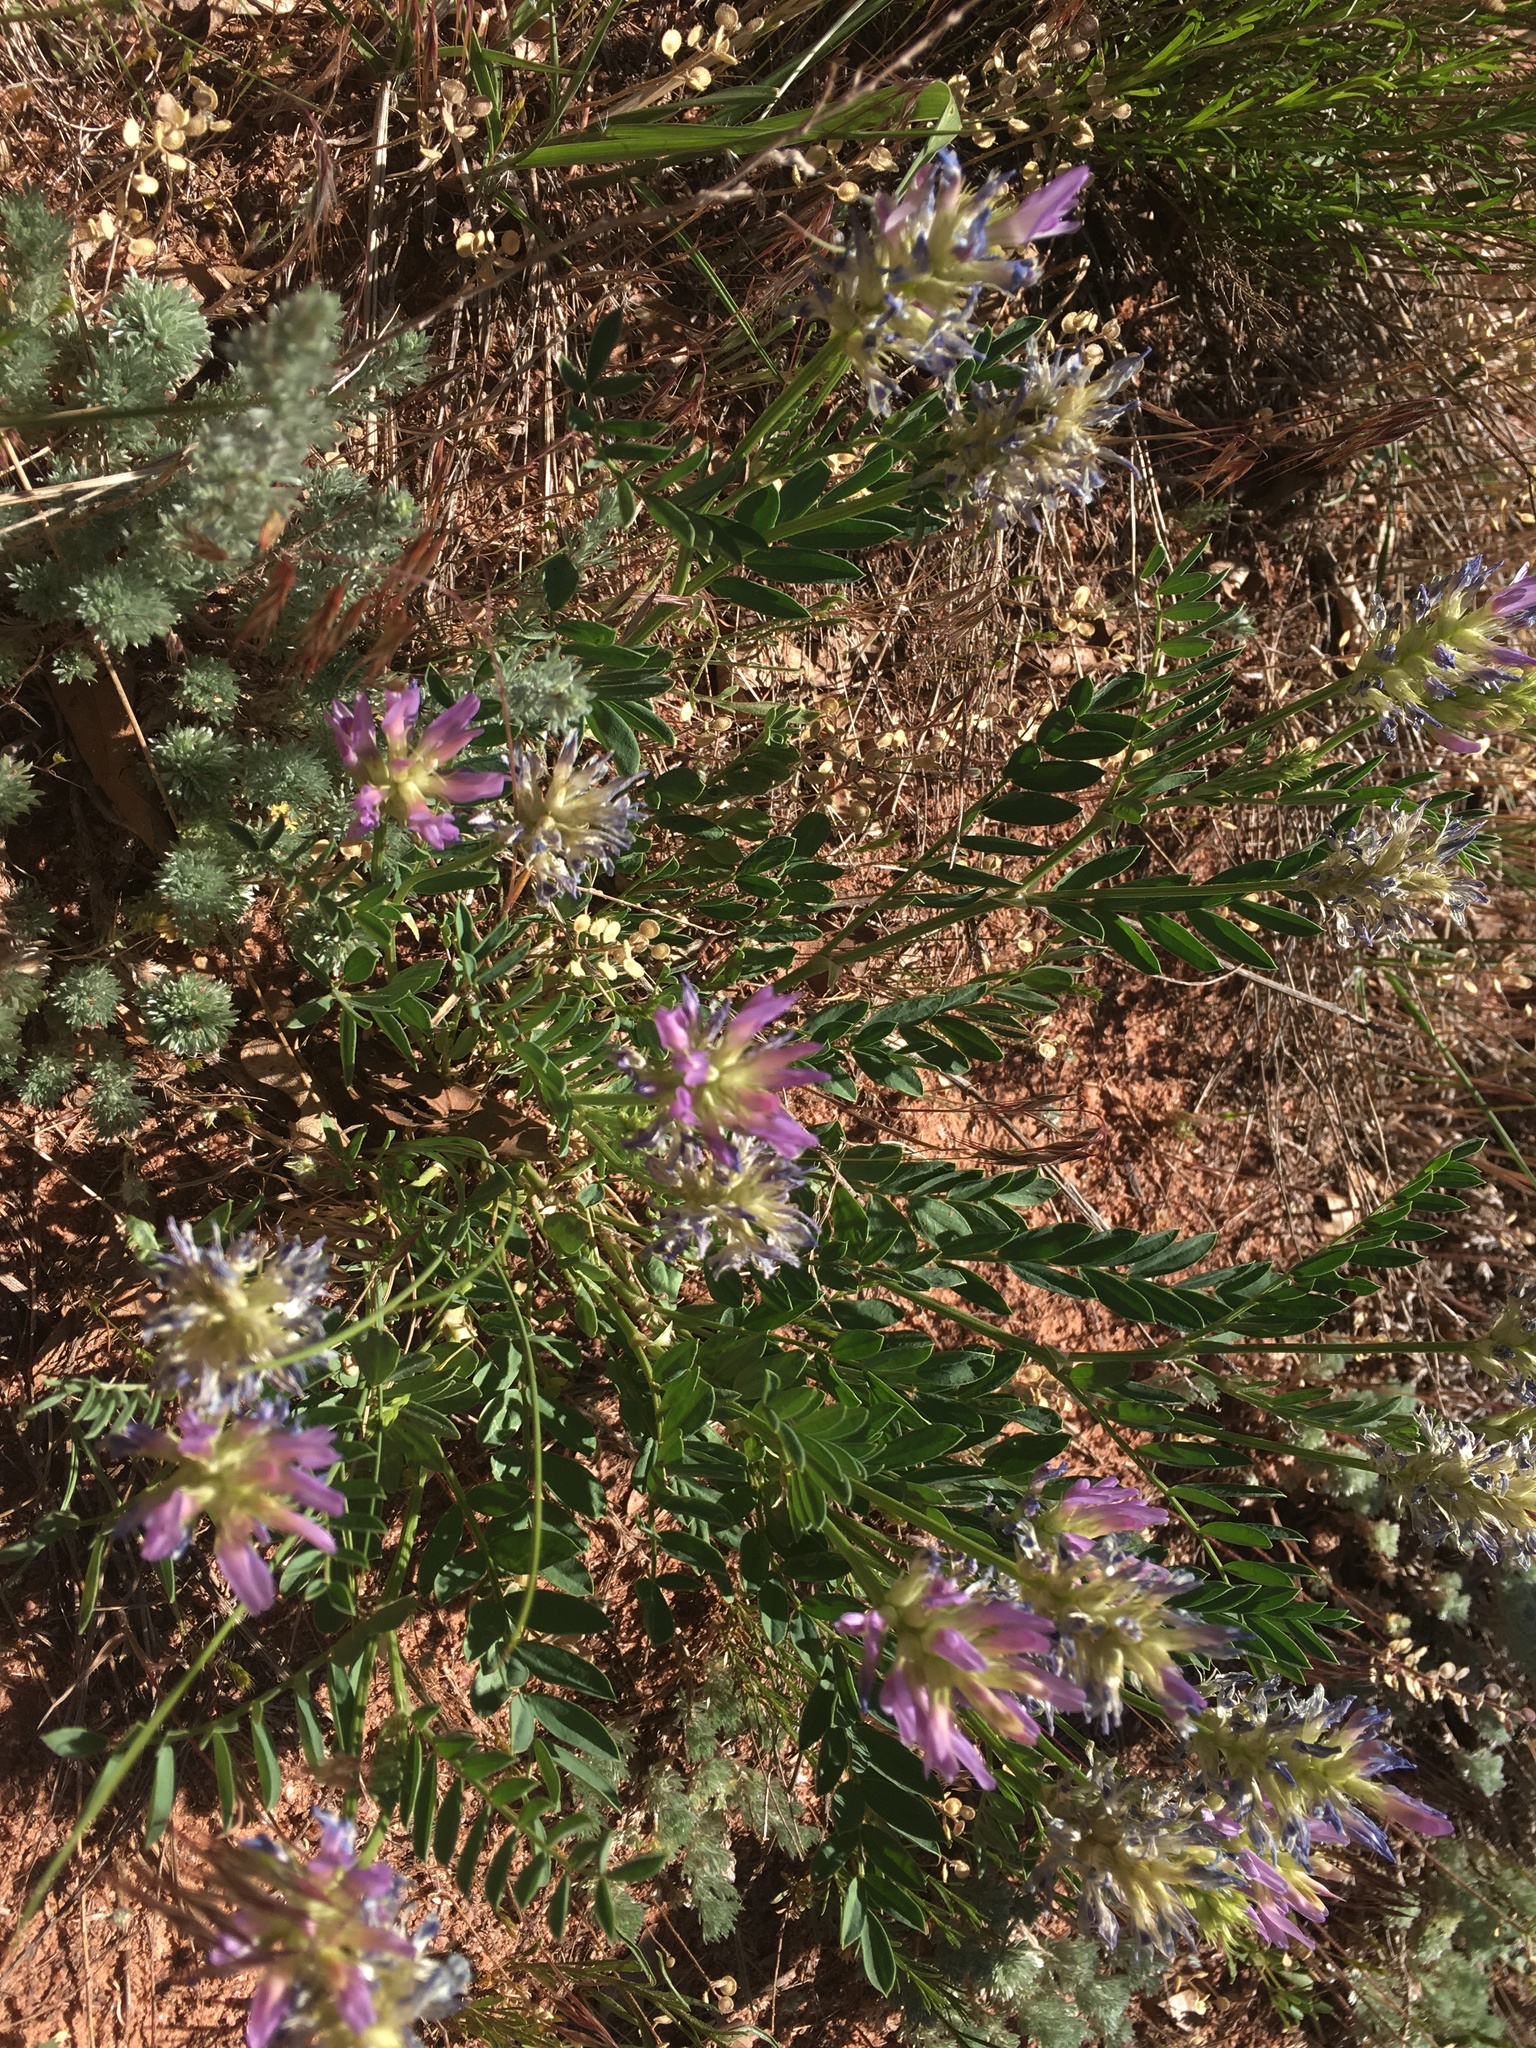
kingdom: Plantae
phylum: Tracheophyta
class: Magnoliopsida
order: Fabales
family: Fabaceae
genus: Astragalus
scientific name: Astragalus laxmannii
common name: Laxmann's milk-vetch
